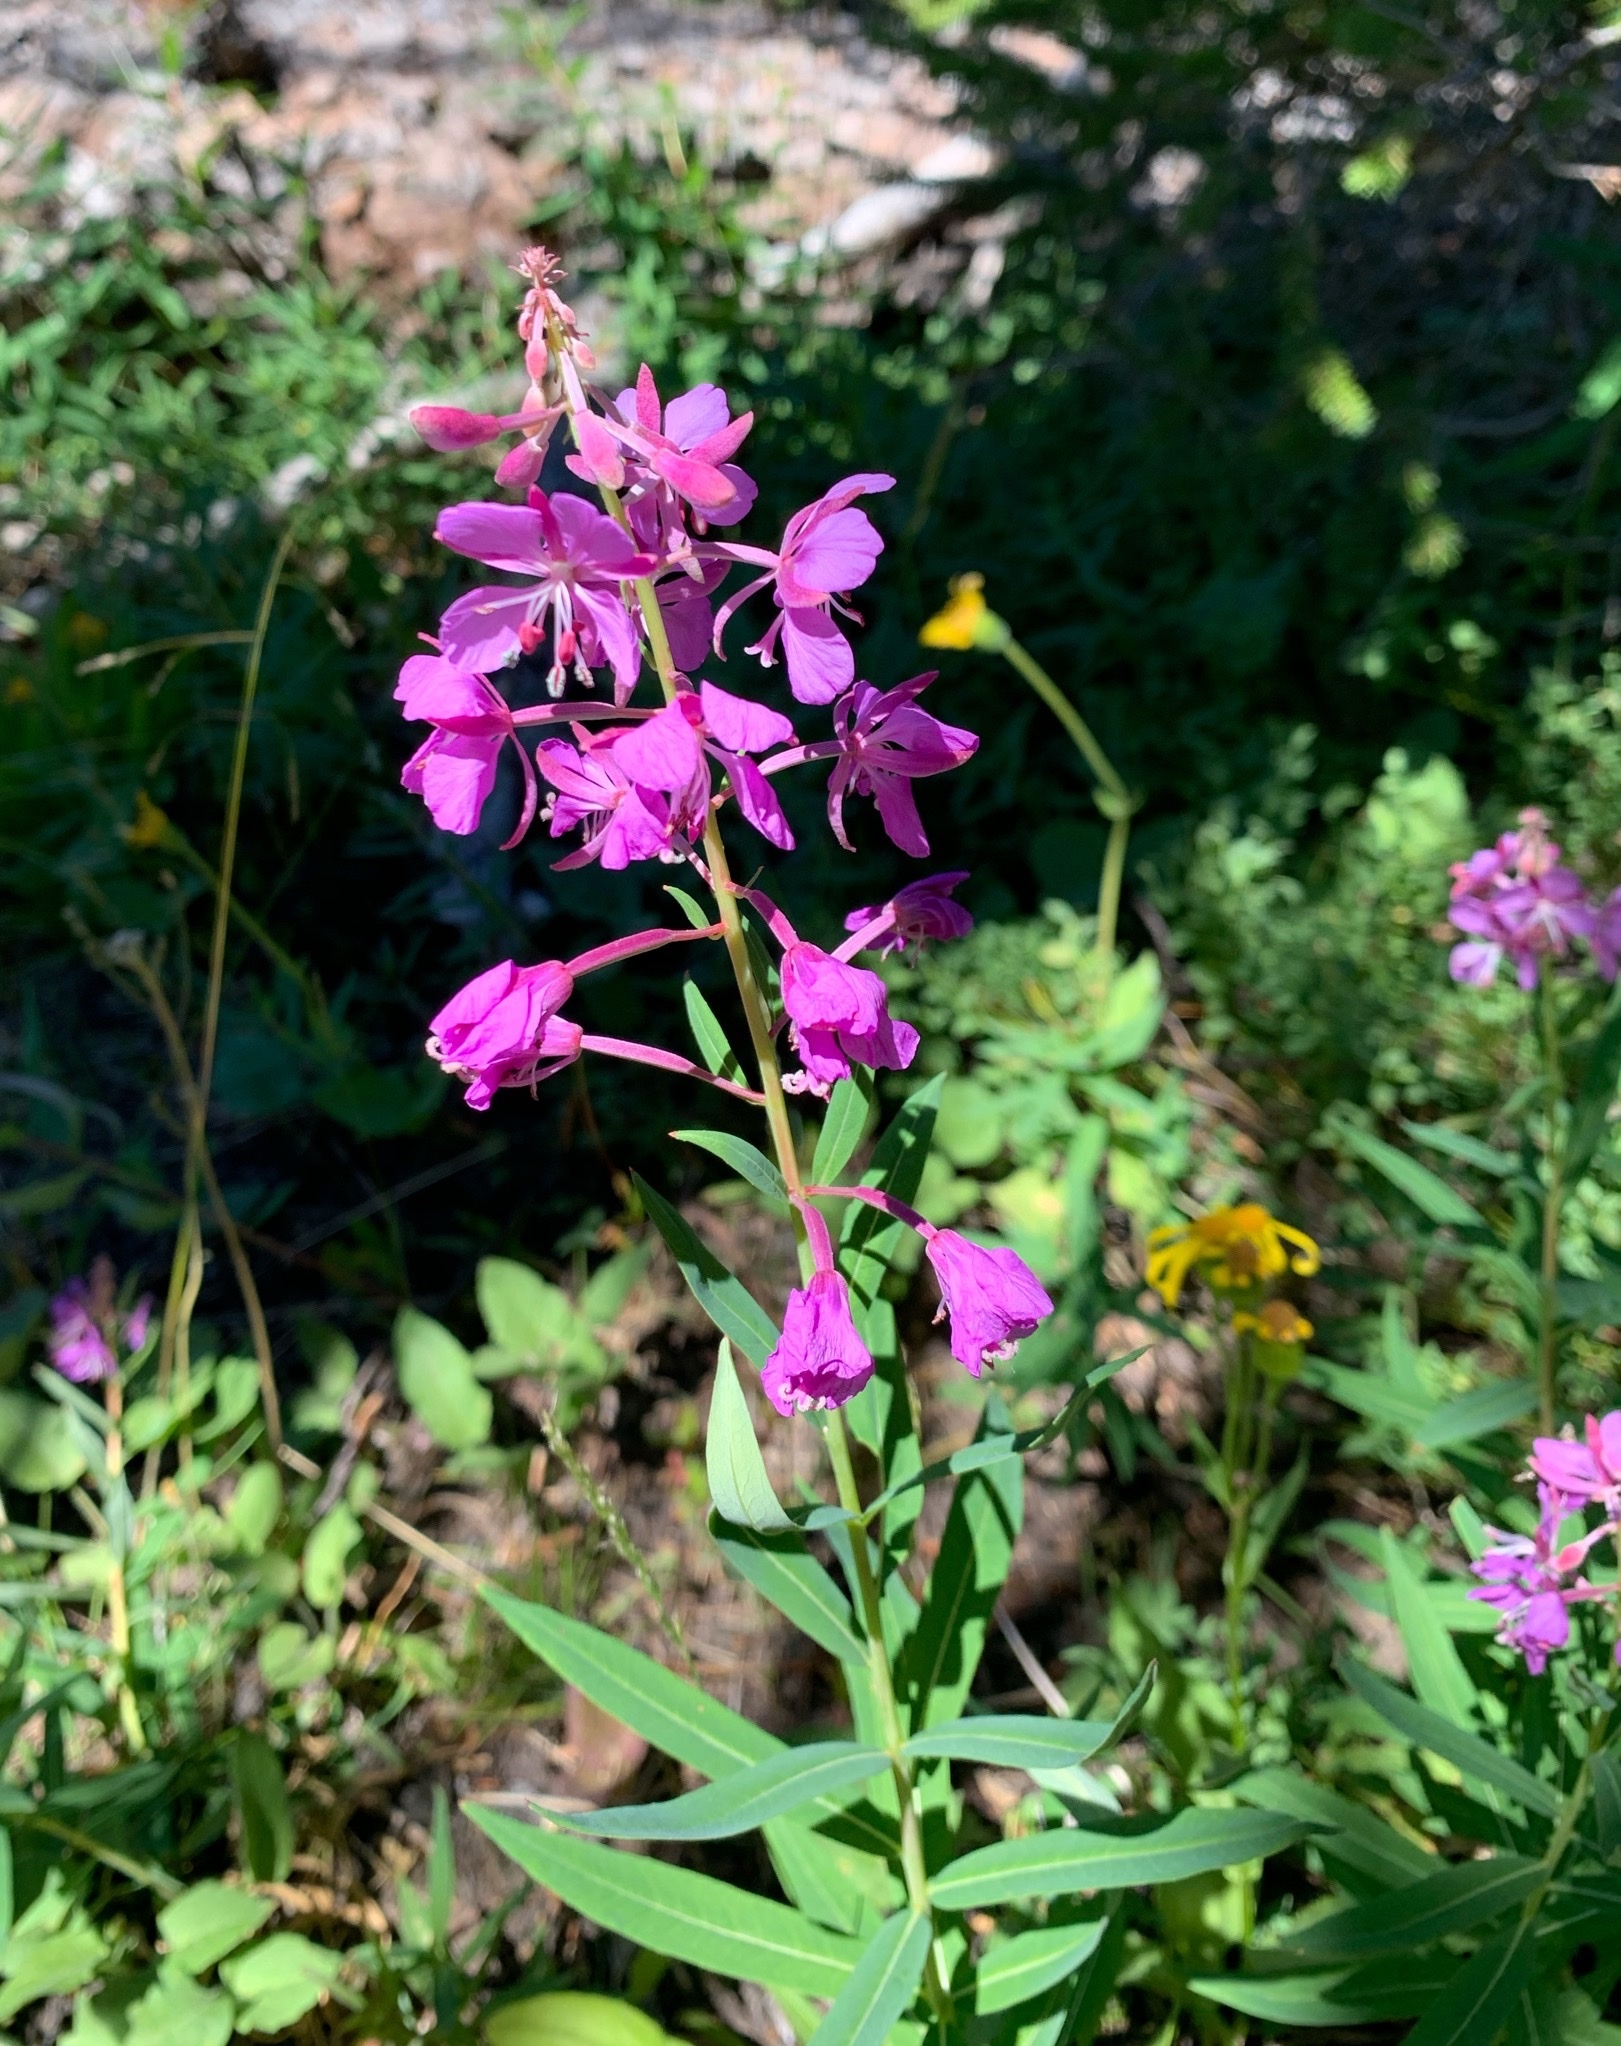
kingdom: Plantae
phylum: Tracheophyta
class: Magnoliopsida
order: Myrtales
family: Onagraceae
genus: Chamaenerion
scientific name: Chamaenerion angustifolium
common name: Fireweed
